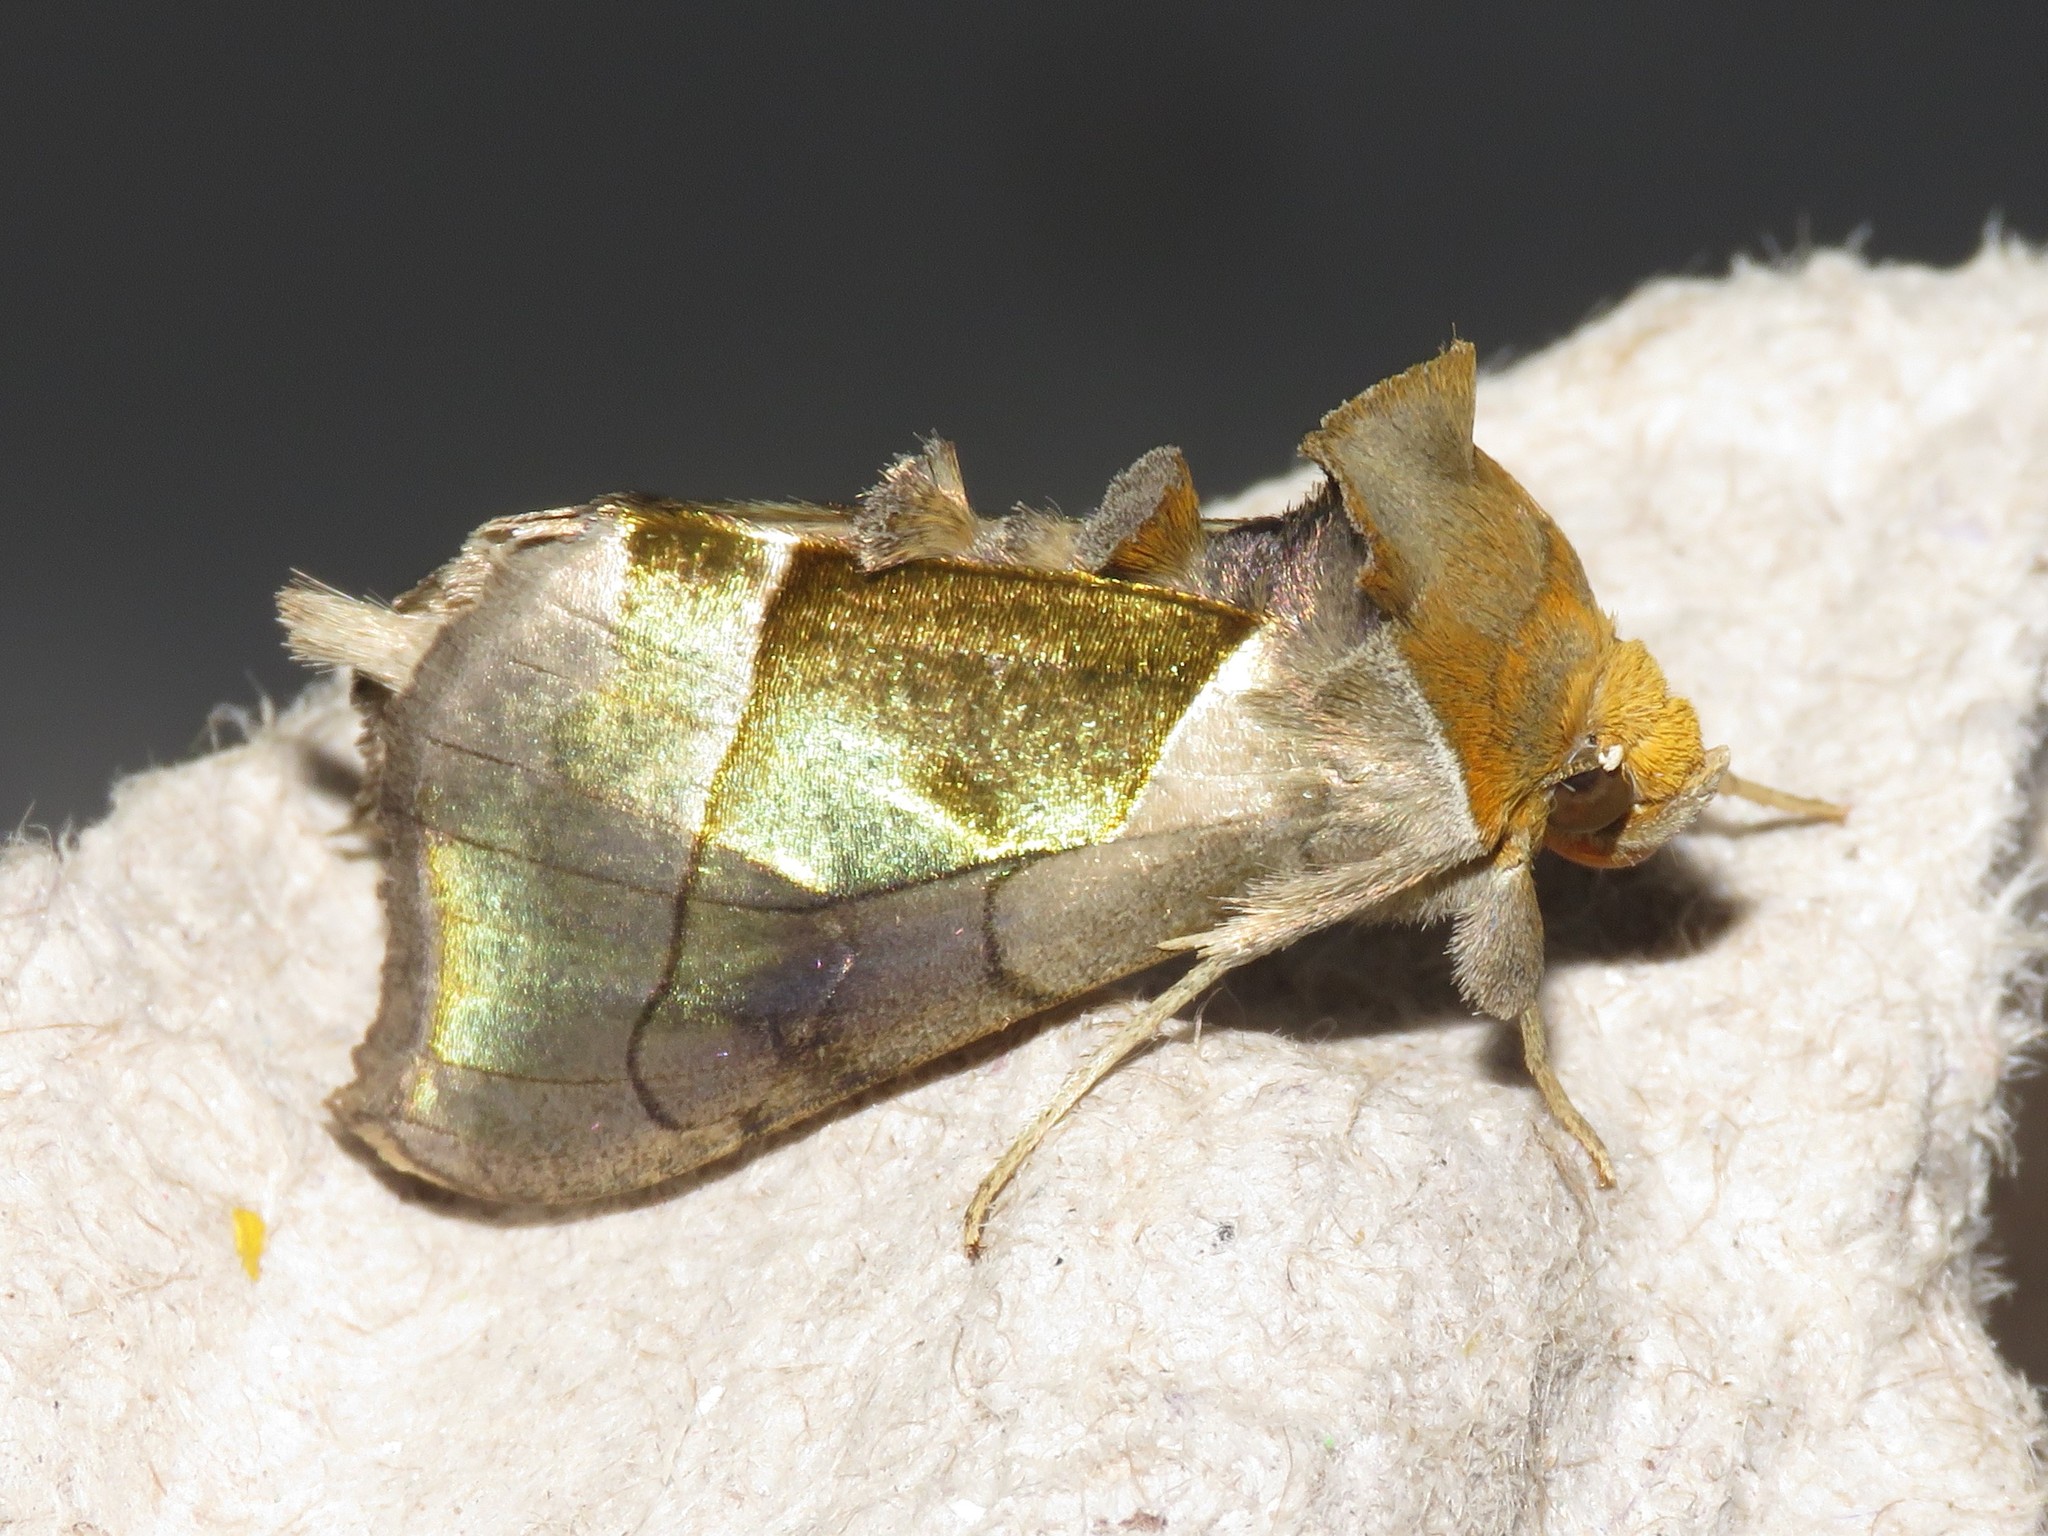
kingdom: Animalia
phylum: Arthropoda
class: Insecta
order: Lepidoptera
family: Noctuidae
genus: Diachrysia
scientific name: Diachrysia balluca
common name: Green-patched looper moth
